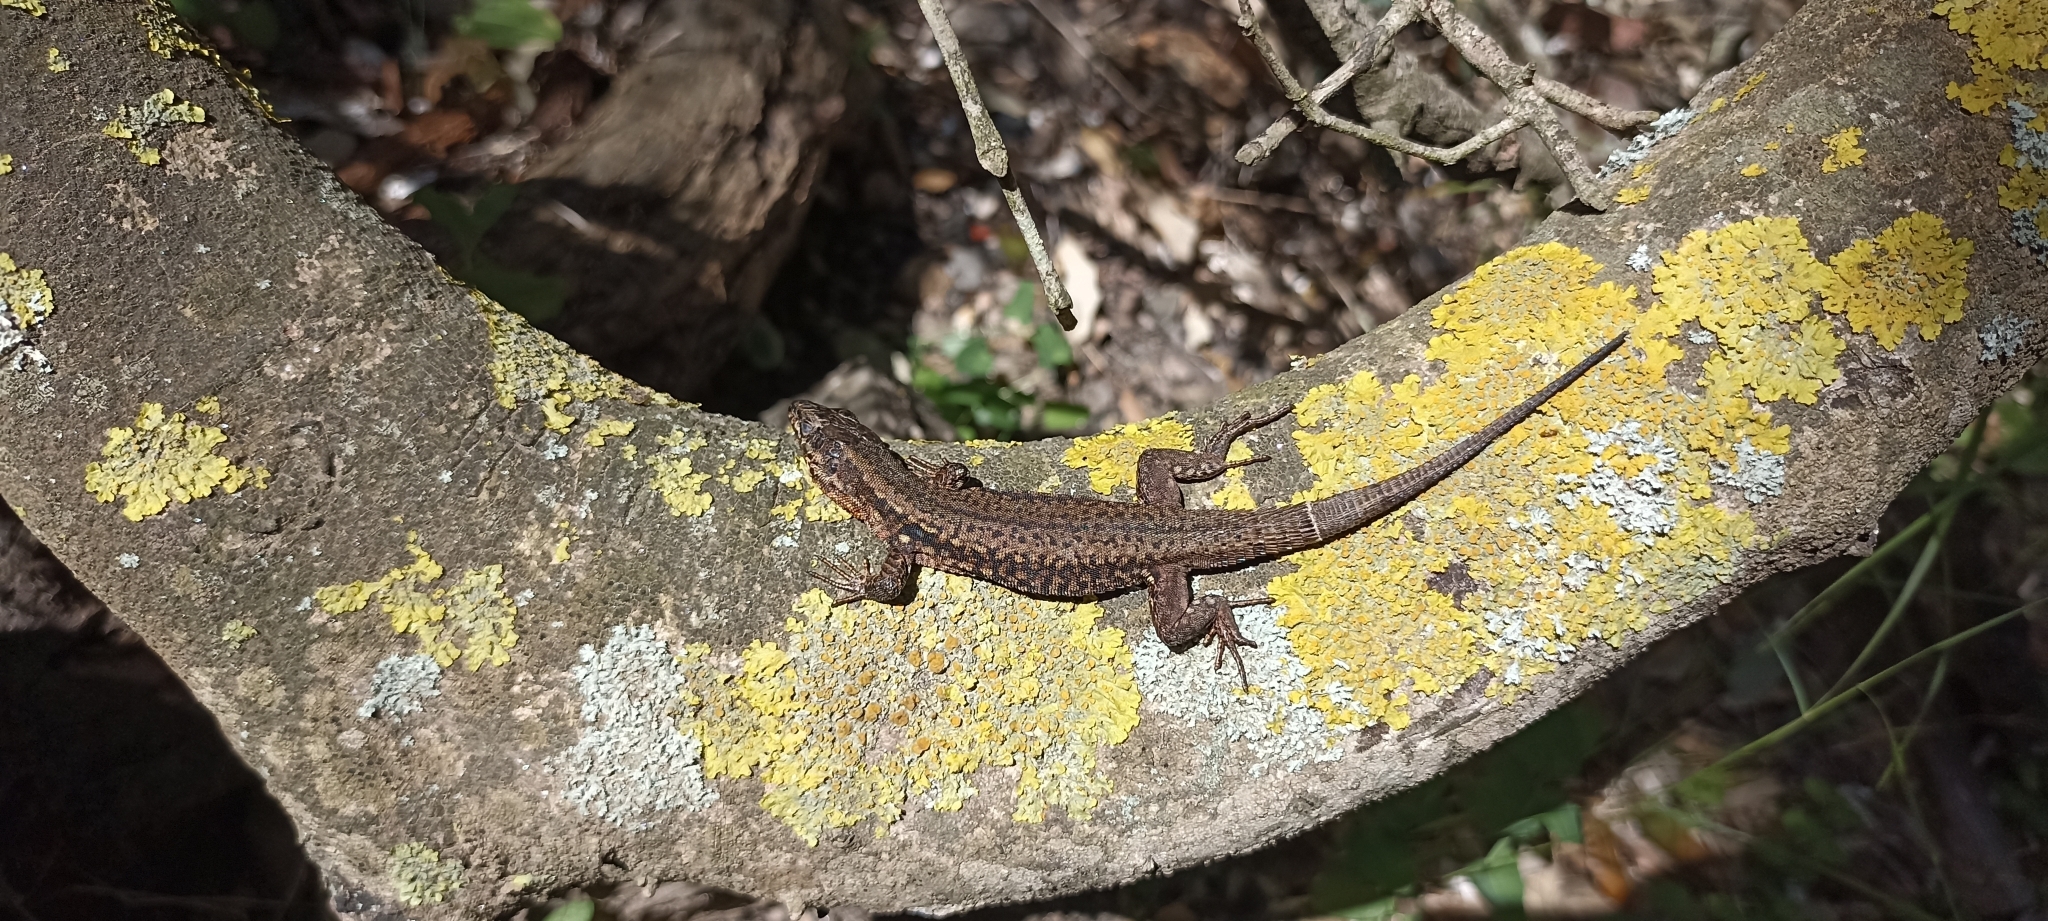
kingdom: Animalia
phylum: Chordata
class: Squamata
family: Lacertidae
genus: Podarcis
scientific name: Podarcis muralis
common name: Common wall lizard
